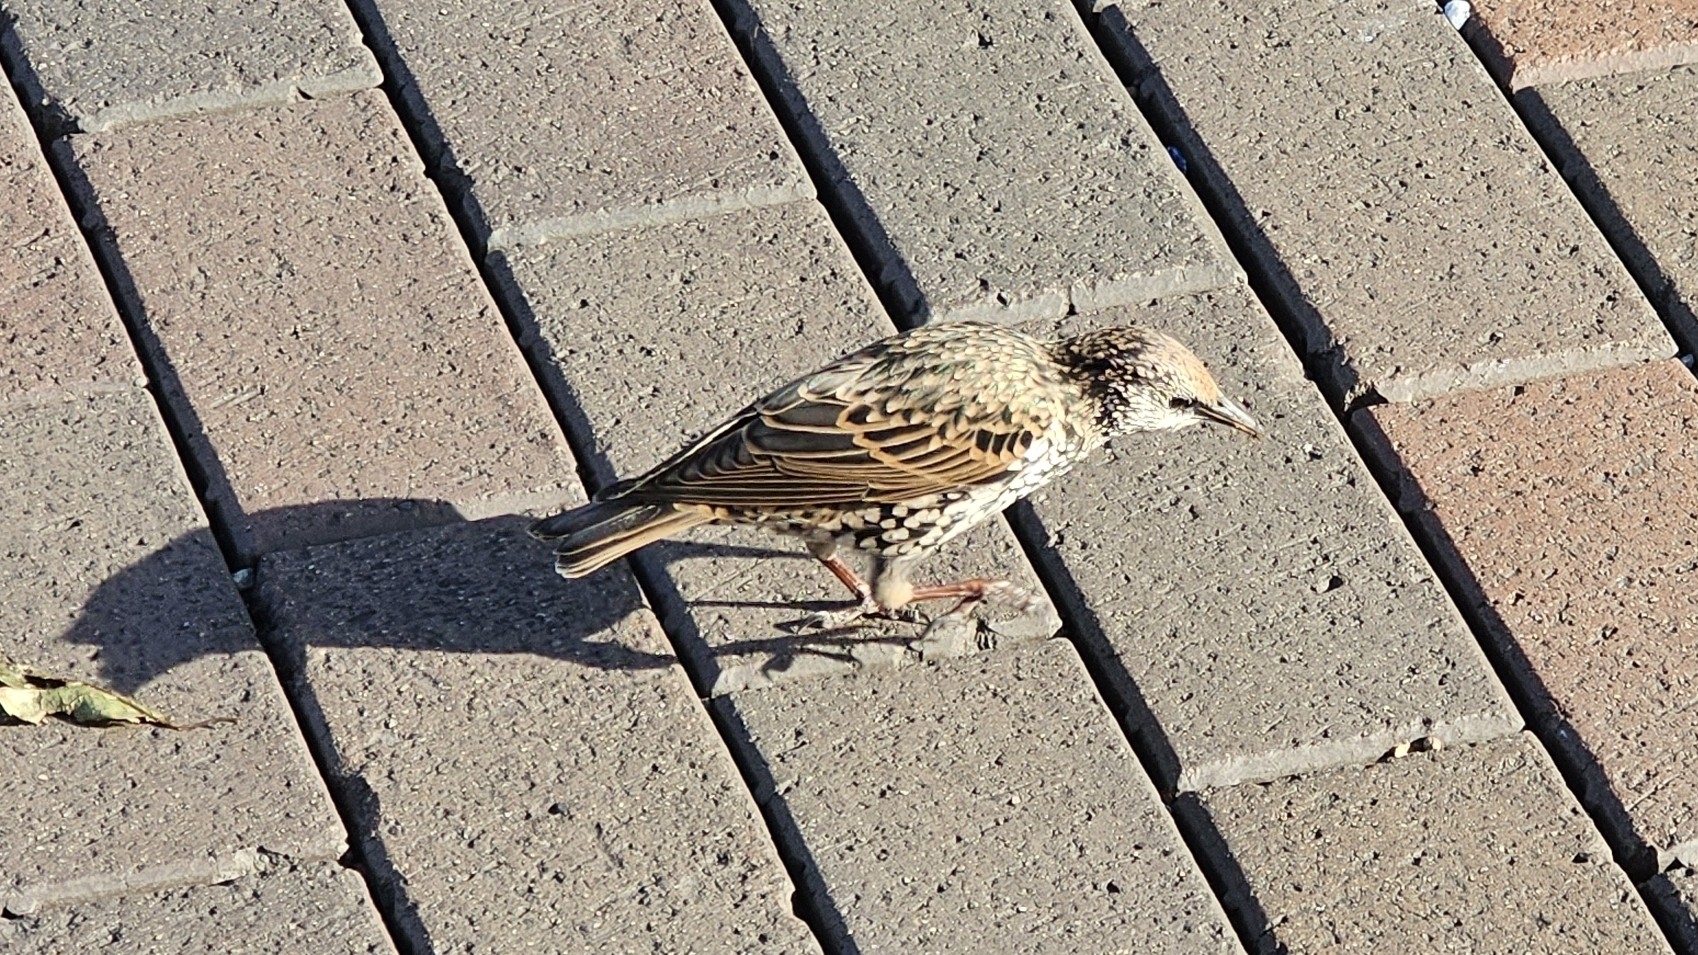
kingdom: Animalia
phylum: Chordata
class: Aves
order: Passeriformes
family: Sturnidae
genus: Sturnus
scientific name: Sturnus vulgaris
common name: Common starling
